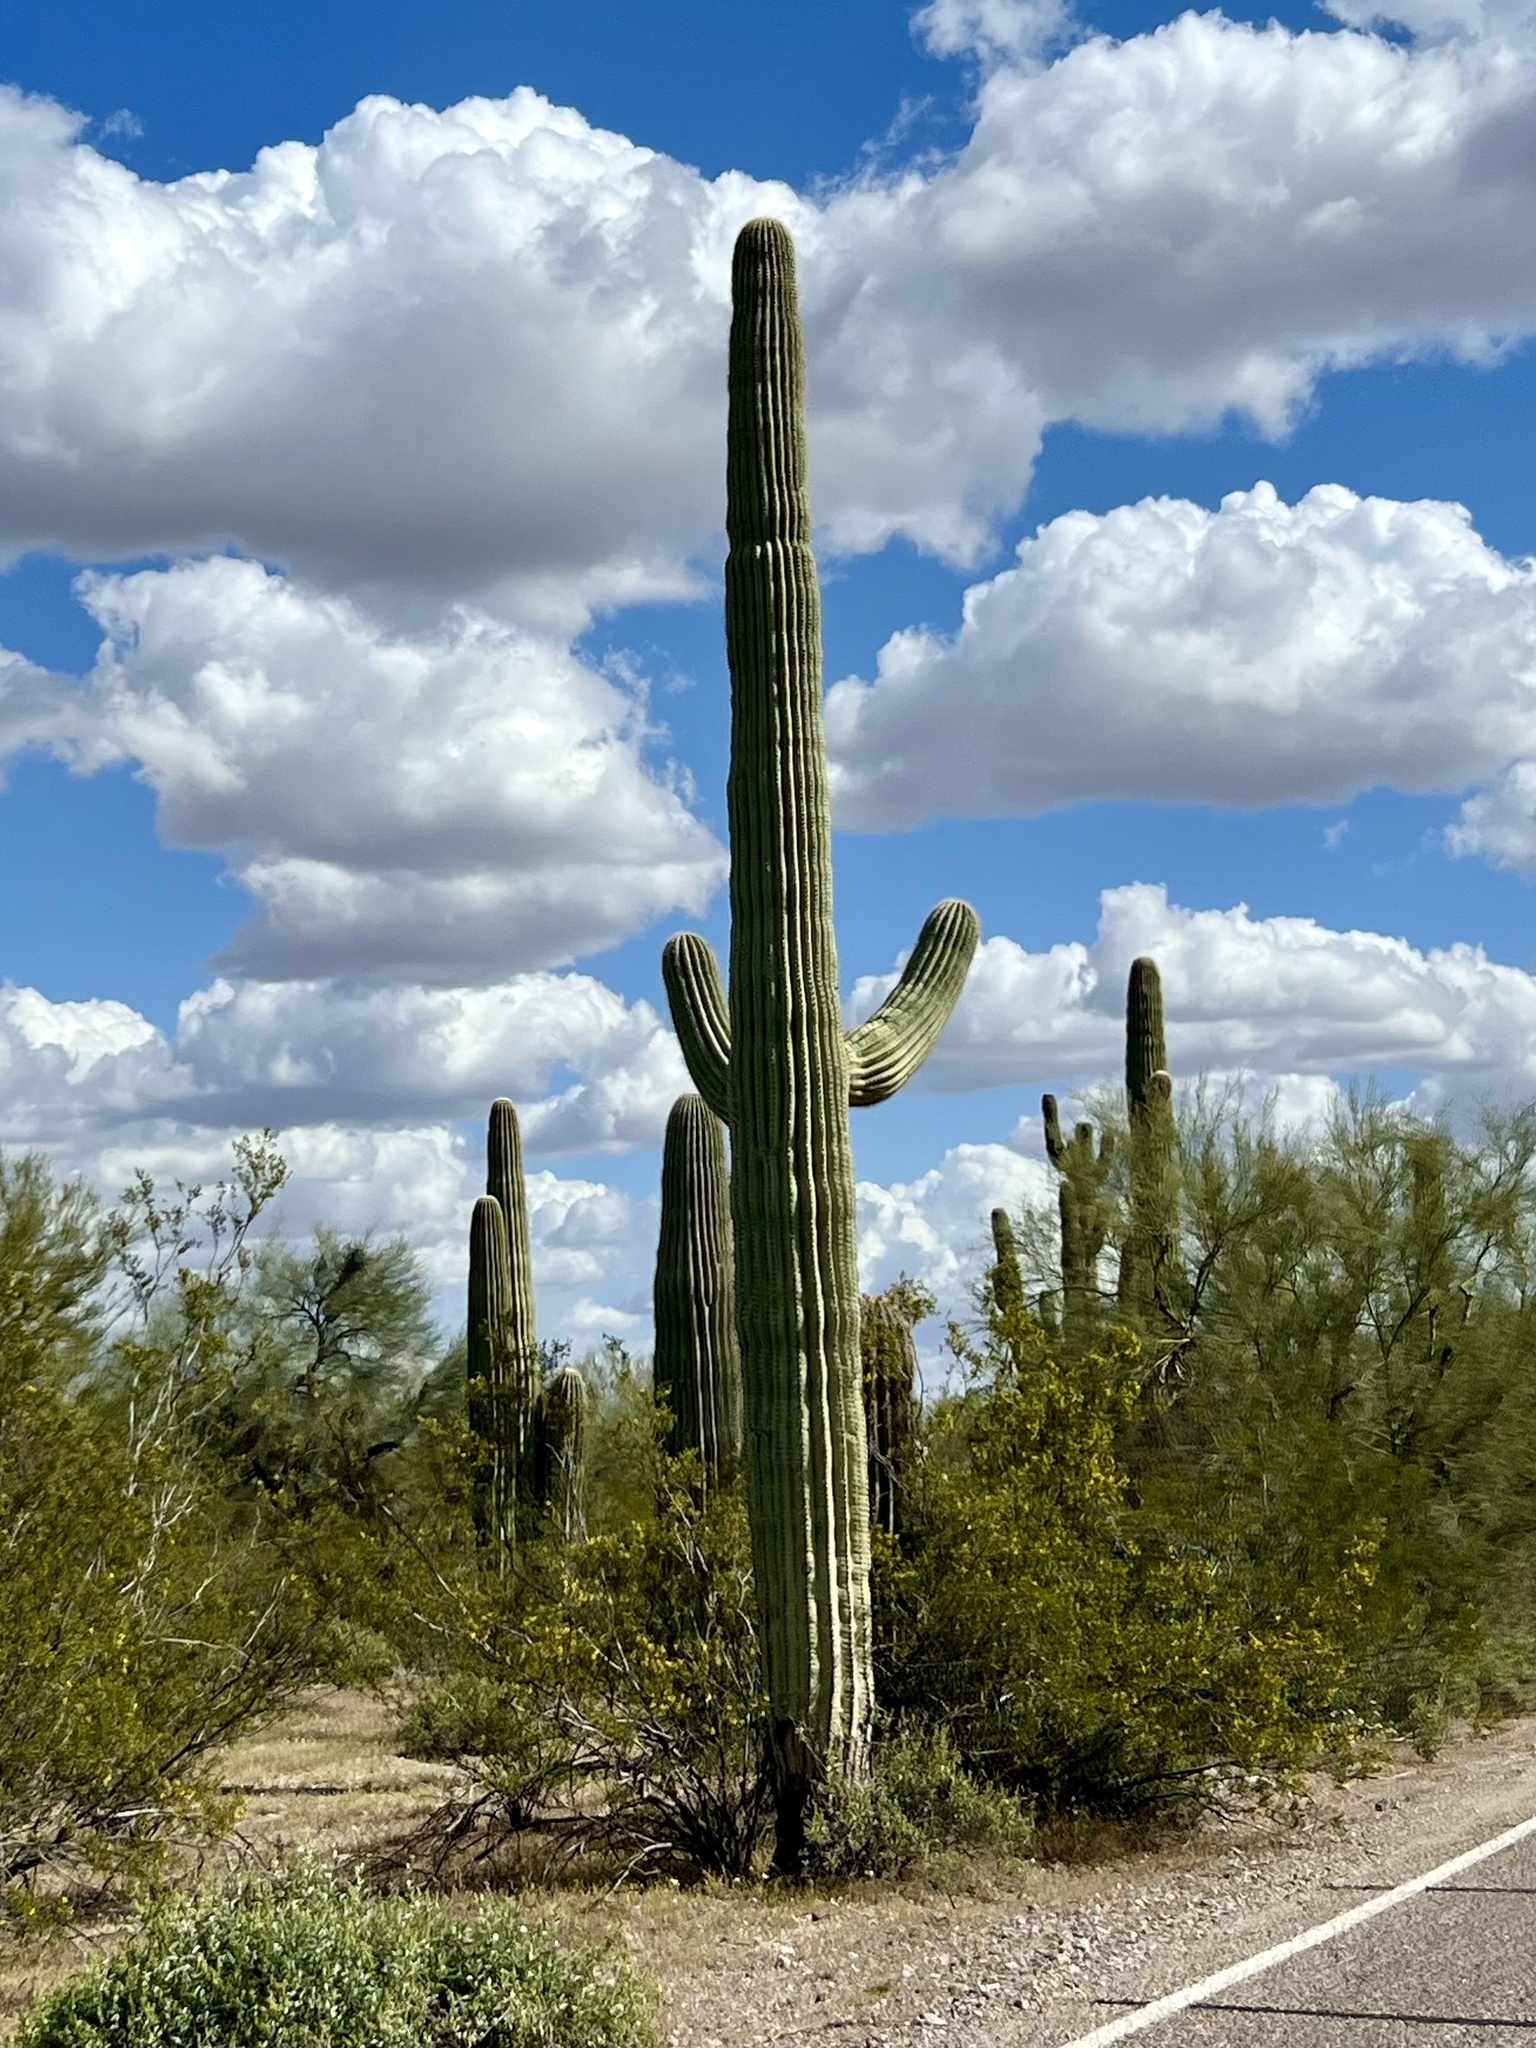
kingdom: Plantae
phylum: Tracheophyta
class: Magnoliopsida
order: Caryophyllales
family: Cactaceae
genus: Carnegiea
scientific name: Carnegiea gigantea
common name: Saguaro
